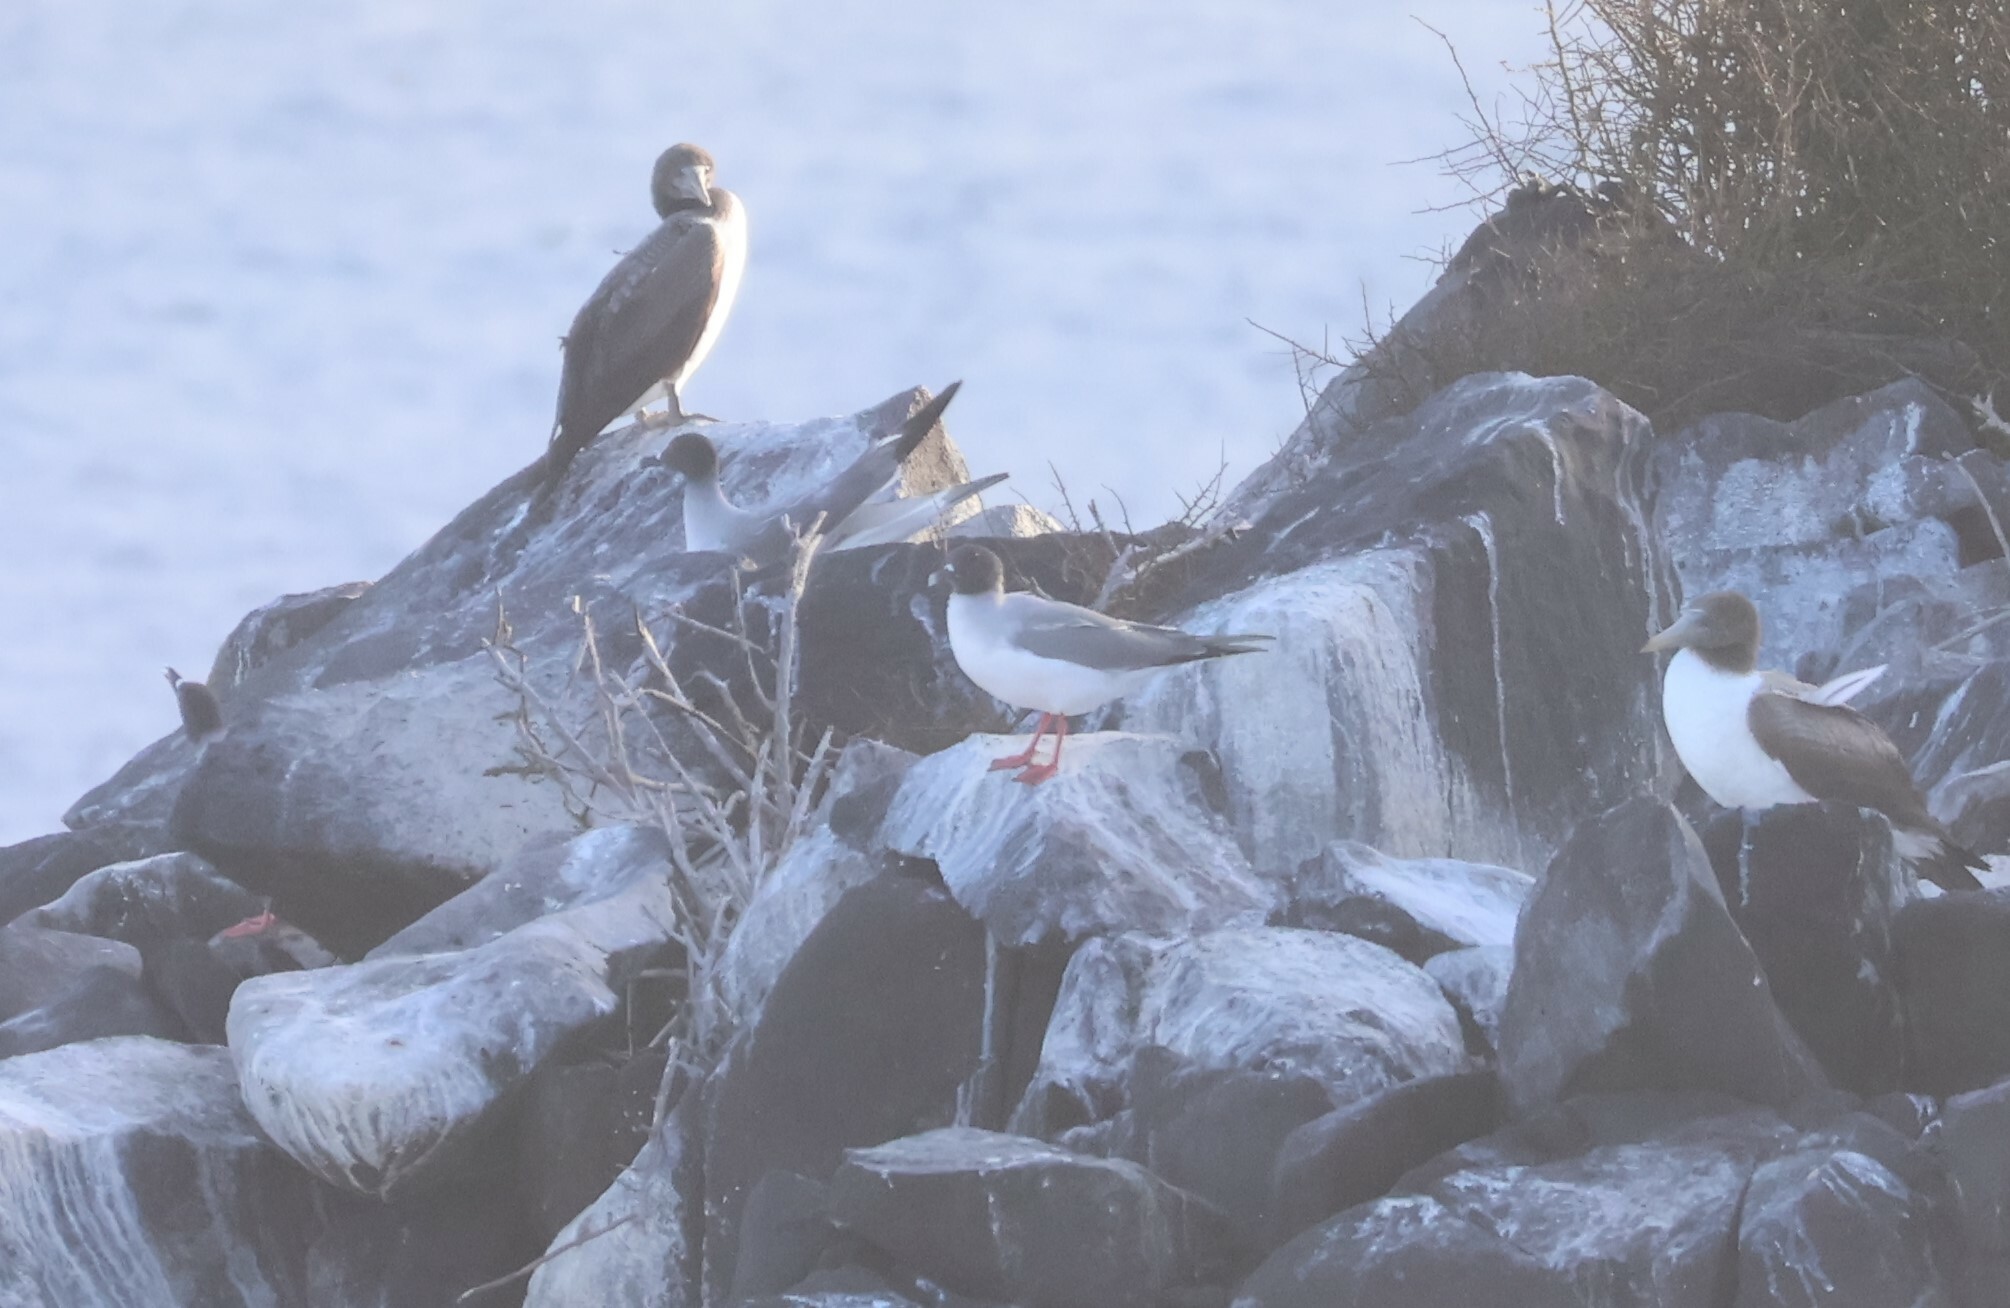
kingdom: Animalia
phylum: Chordata
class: Aves
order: Charadriiformes
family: Laridae
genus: Creagrus
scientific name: Creagrus furcatus
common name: Swallow-tailed gull
